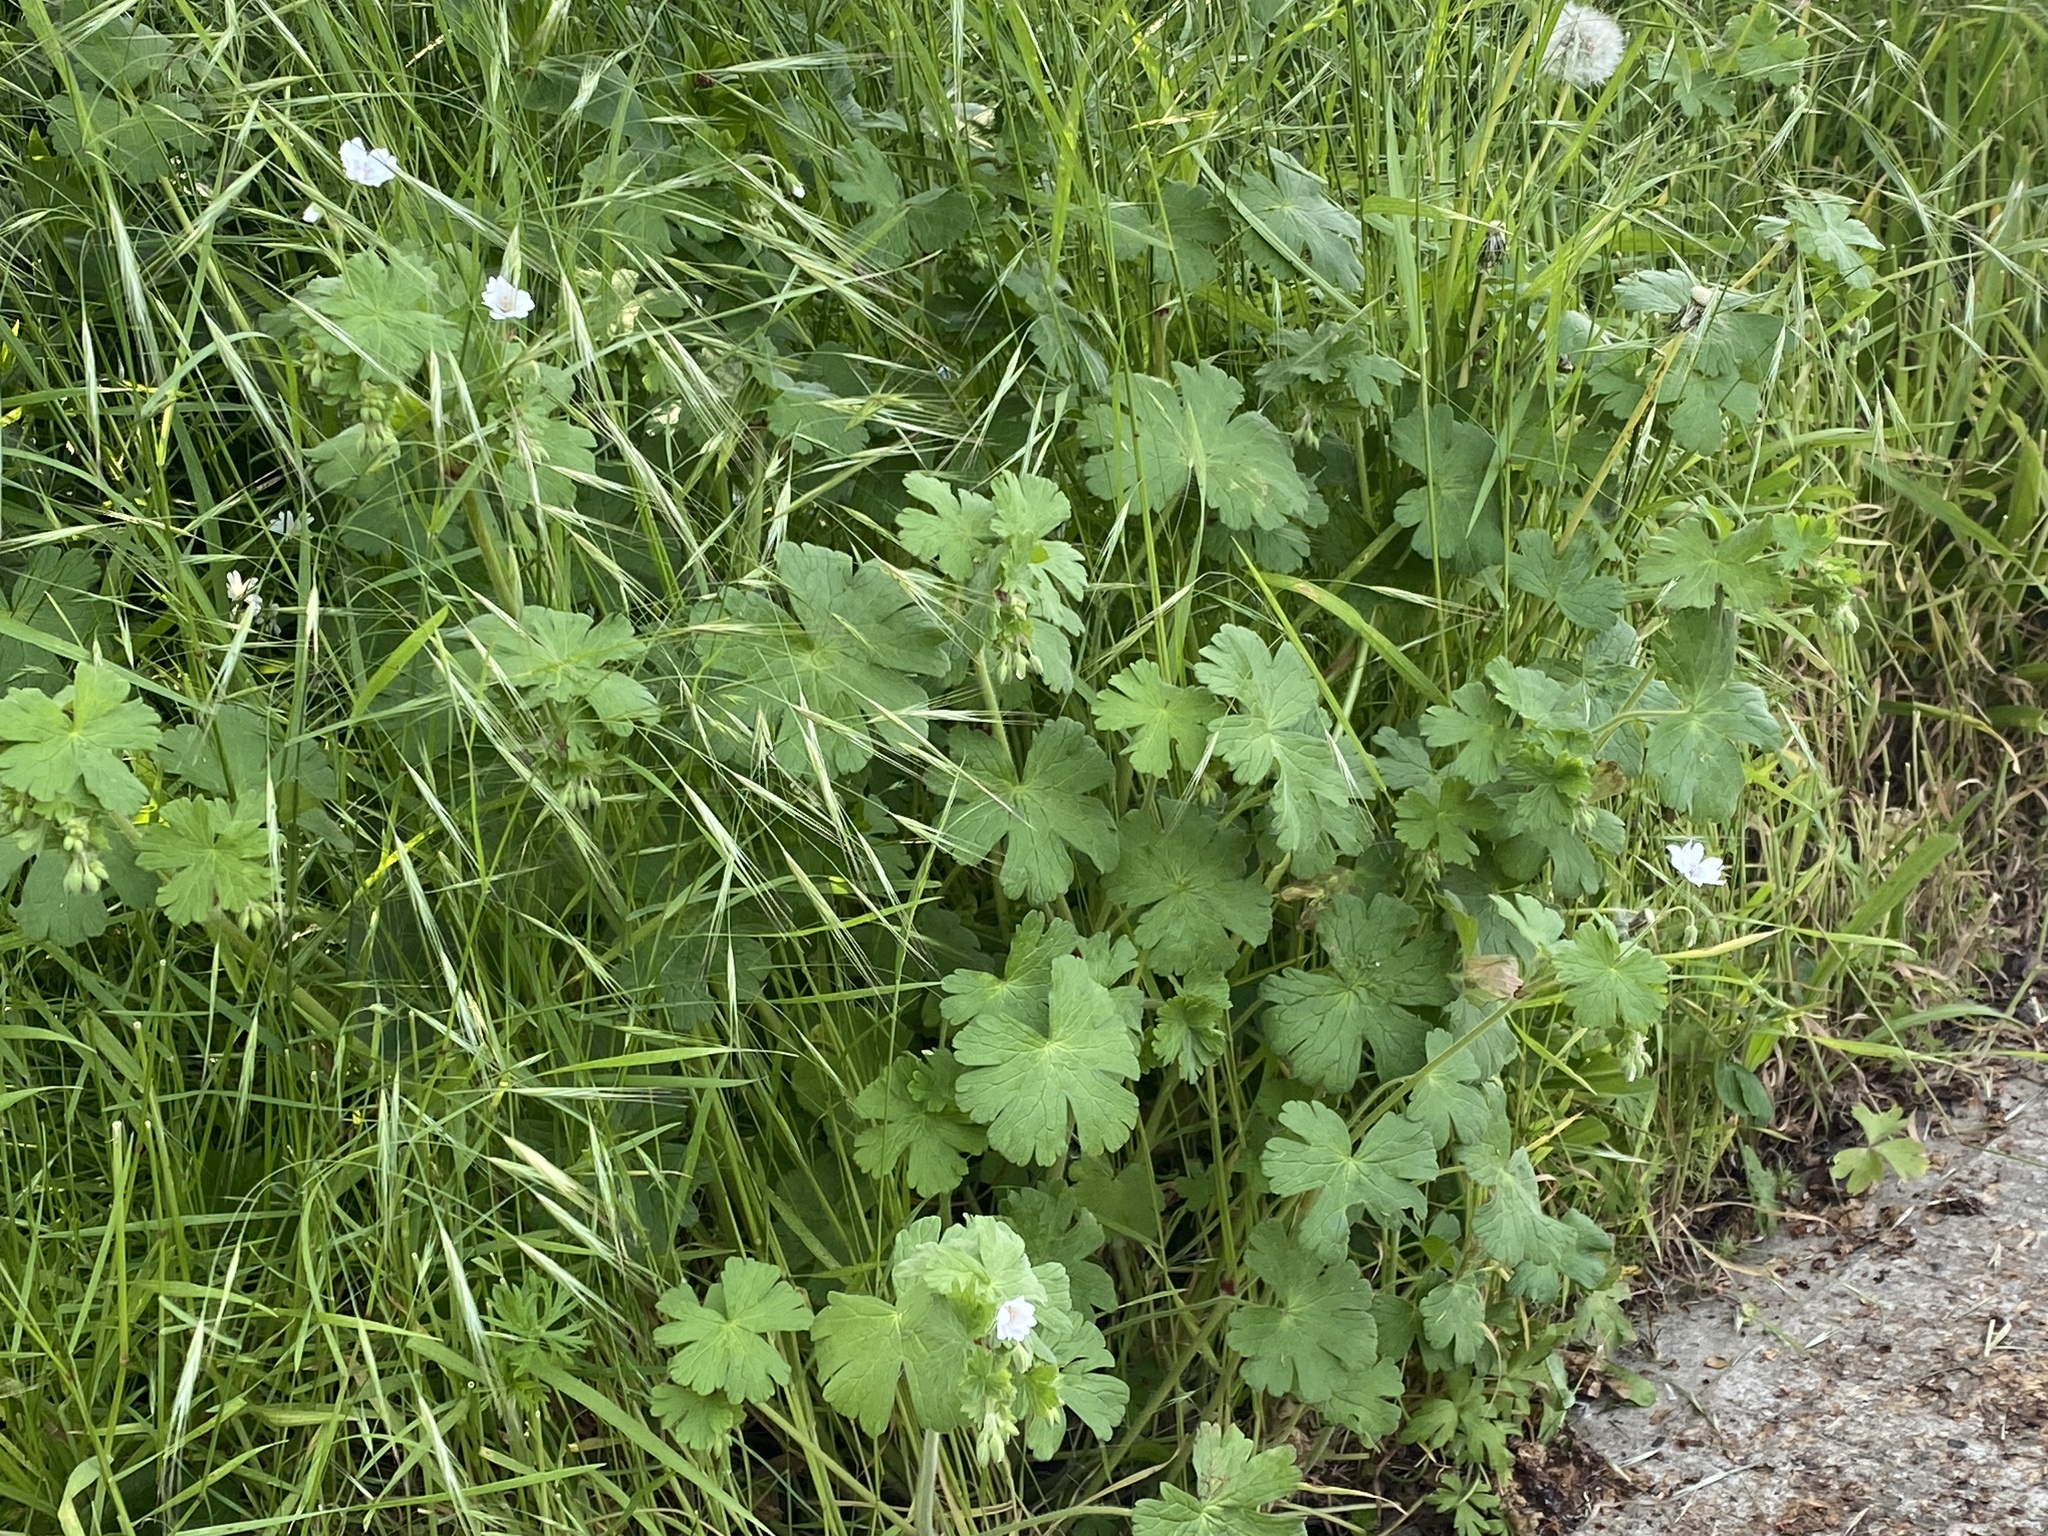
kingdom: Plantae
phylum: Tracheophyta
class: Magnoliopsida
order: Geraniales
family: Geraniaceae
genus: Geranium
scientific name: Geranium pyrenaicum
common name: Hedgerow crane's-bill
